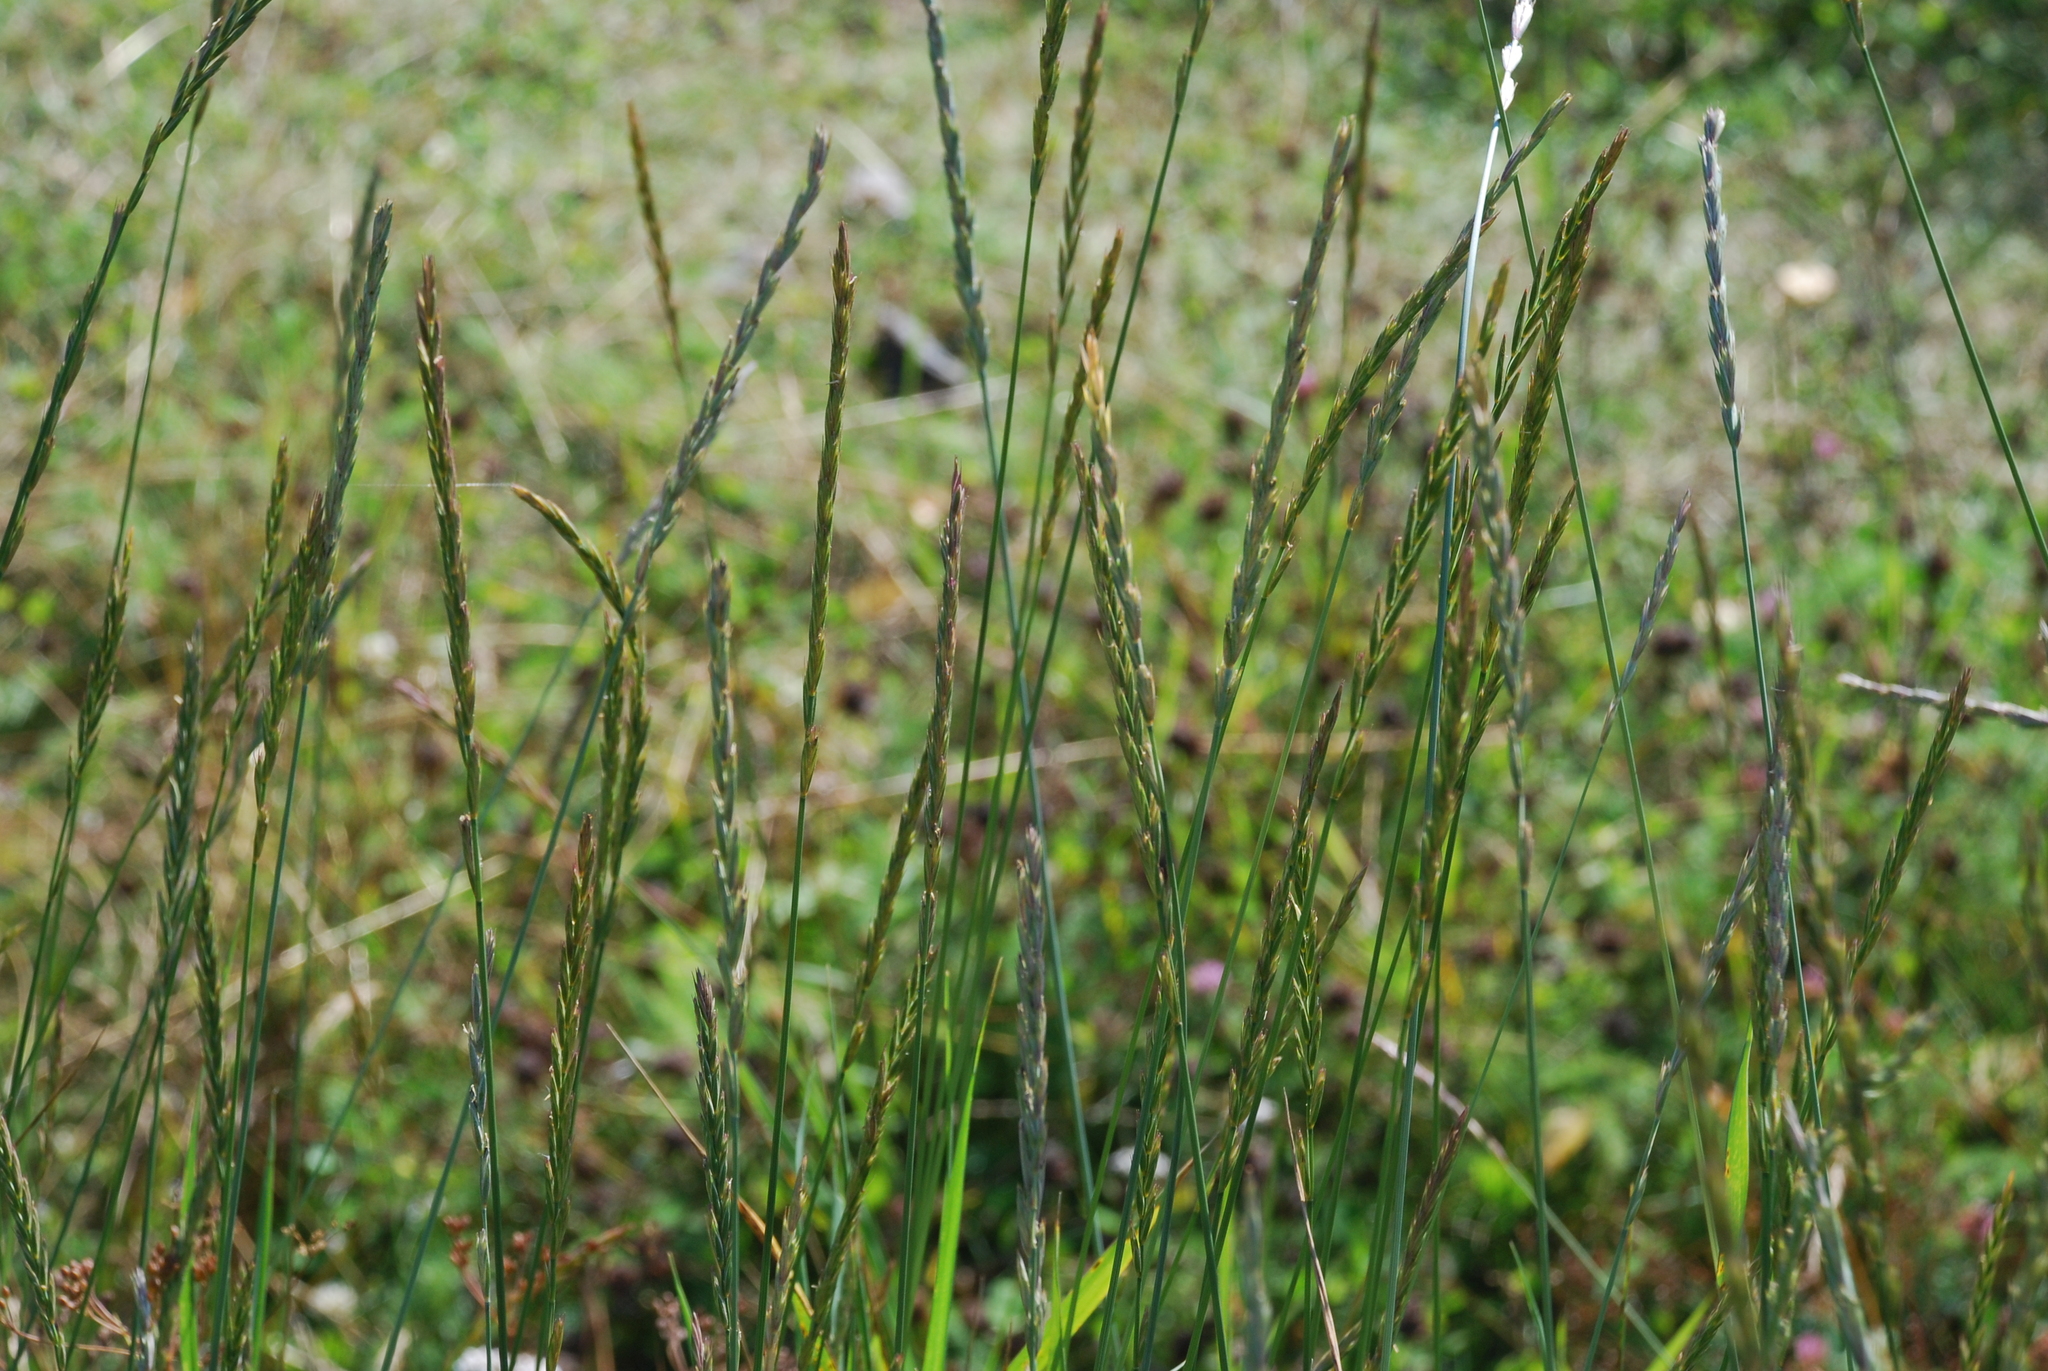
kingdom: Plantae
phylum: Tracheophyta
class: Liliopsida
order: Poales
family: Poaceae
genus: Elymus
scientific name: Elymus repens
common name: Quackgrass
